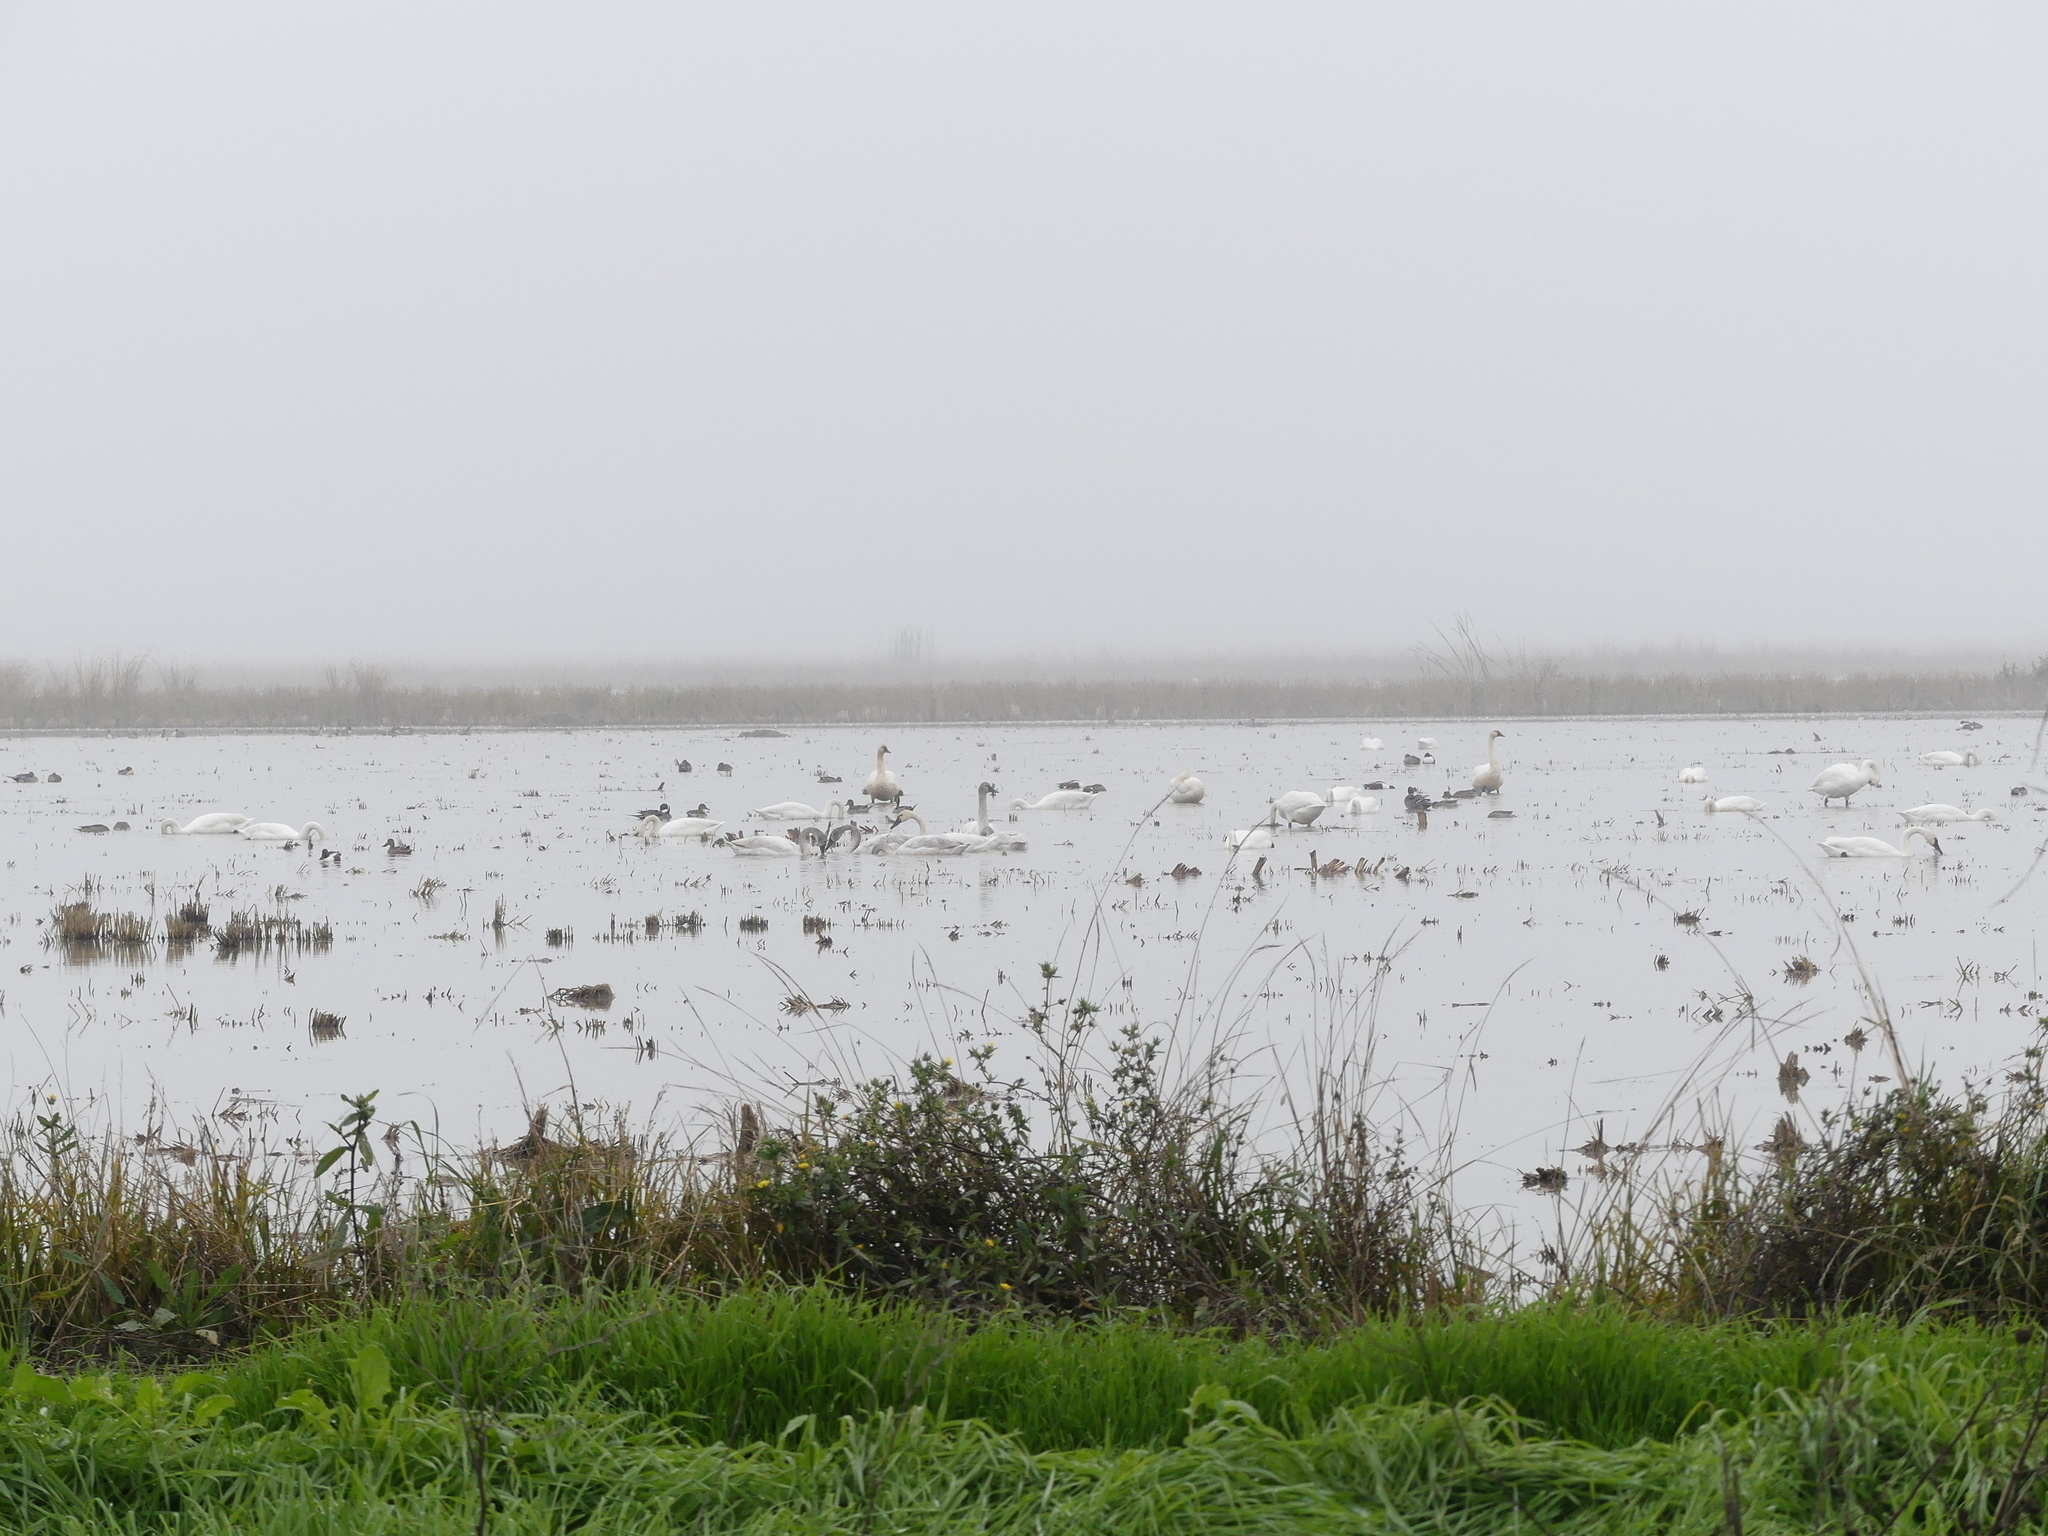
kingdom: Animalia
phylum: Chordata
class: Aves
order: Anseriformes
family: Anatidae
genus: Cygnus
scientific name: Cygnus columbianus
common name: Tundra swan
